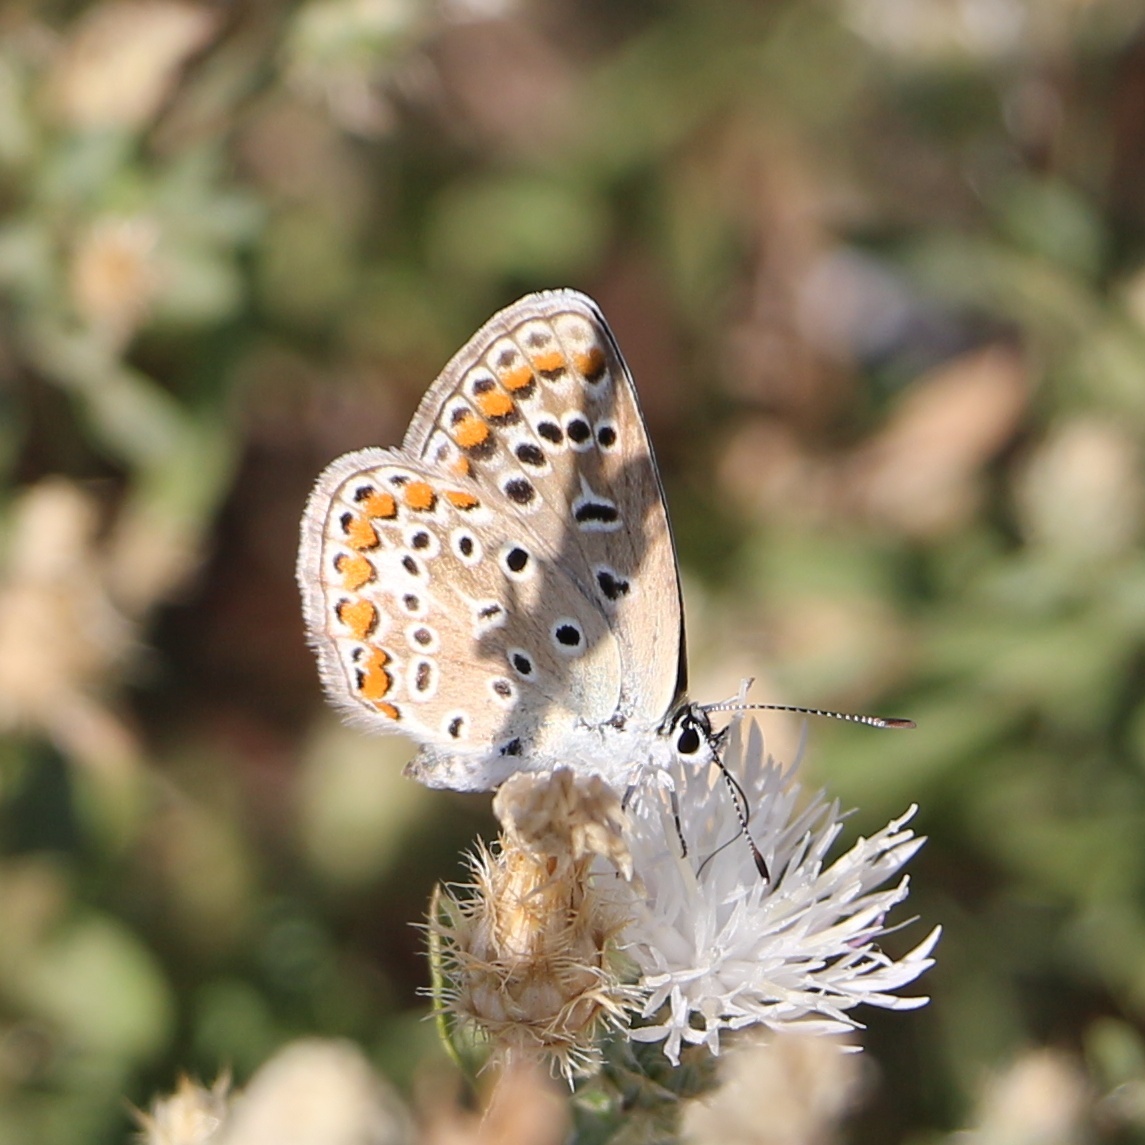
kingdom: Animalia
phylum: Arthropoda
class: Insecta
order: Lepidoptera
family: Lycaenidae
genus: Polyommatus
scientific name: Polyommatus icarus
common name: Common blue
